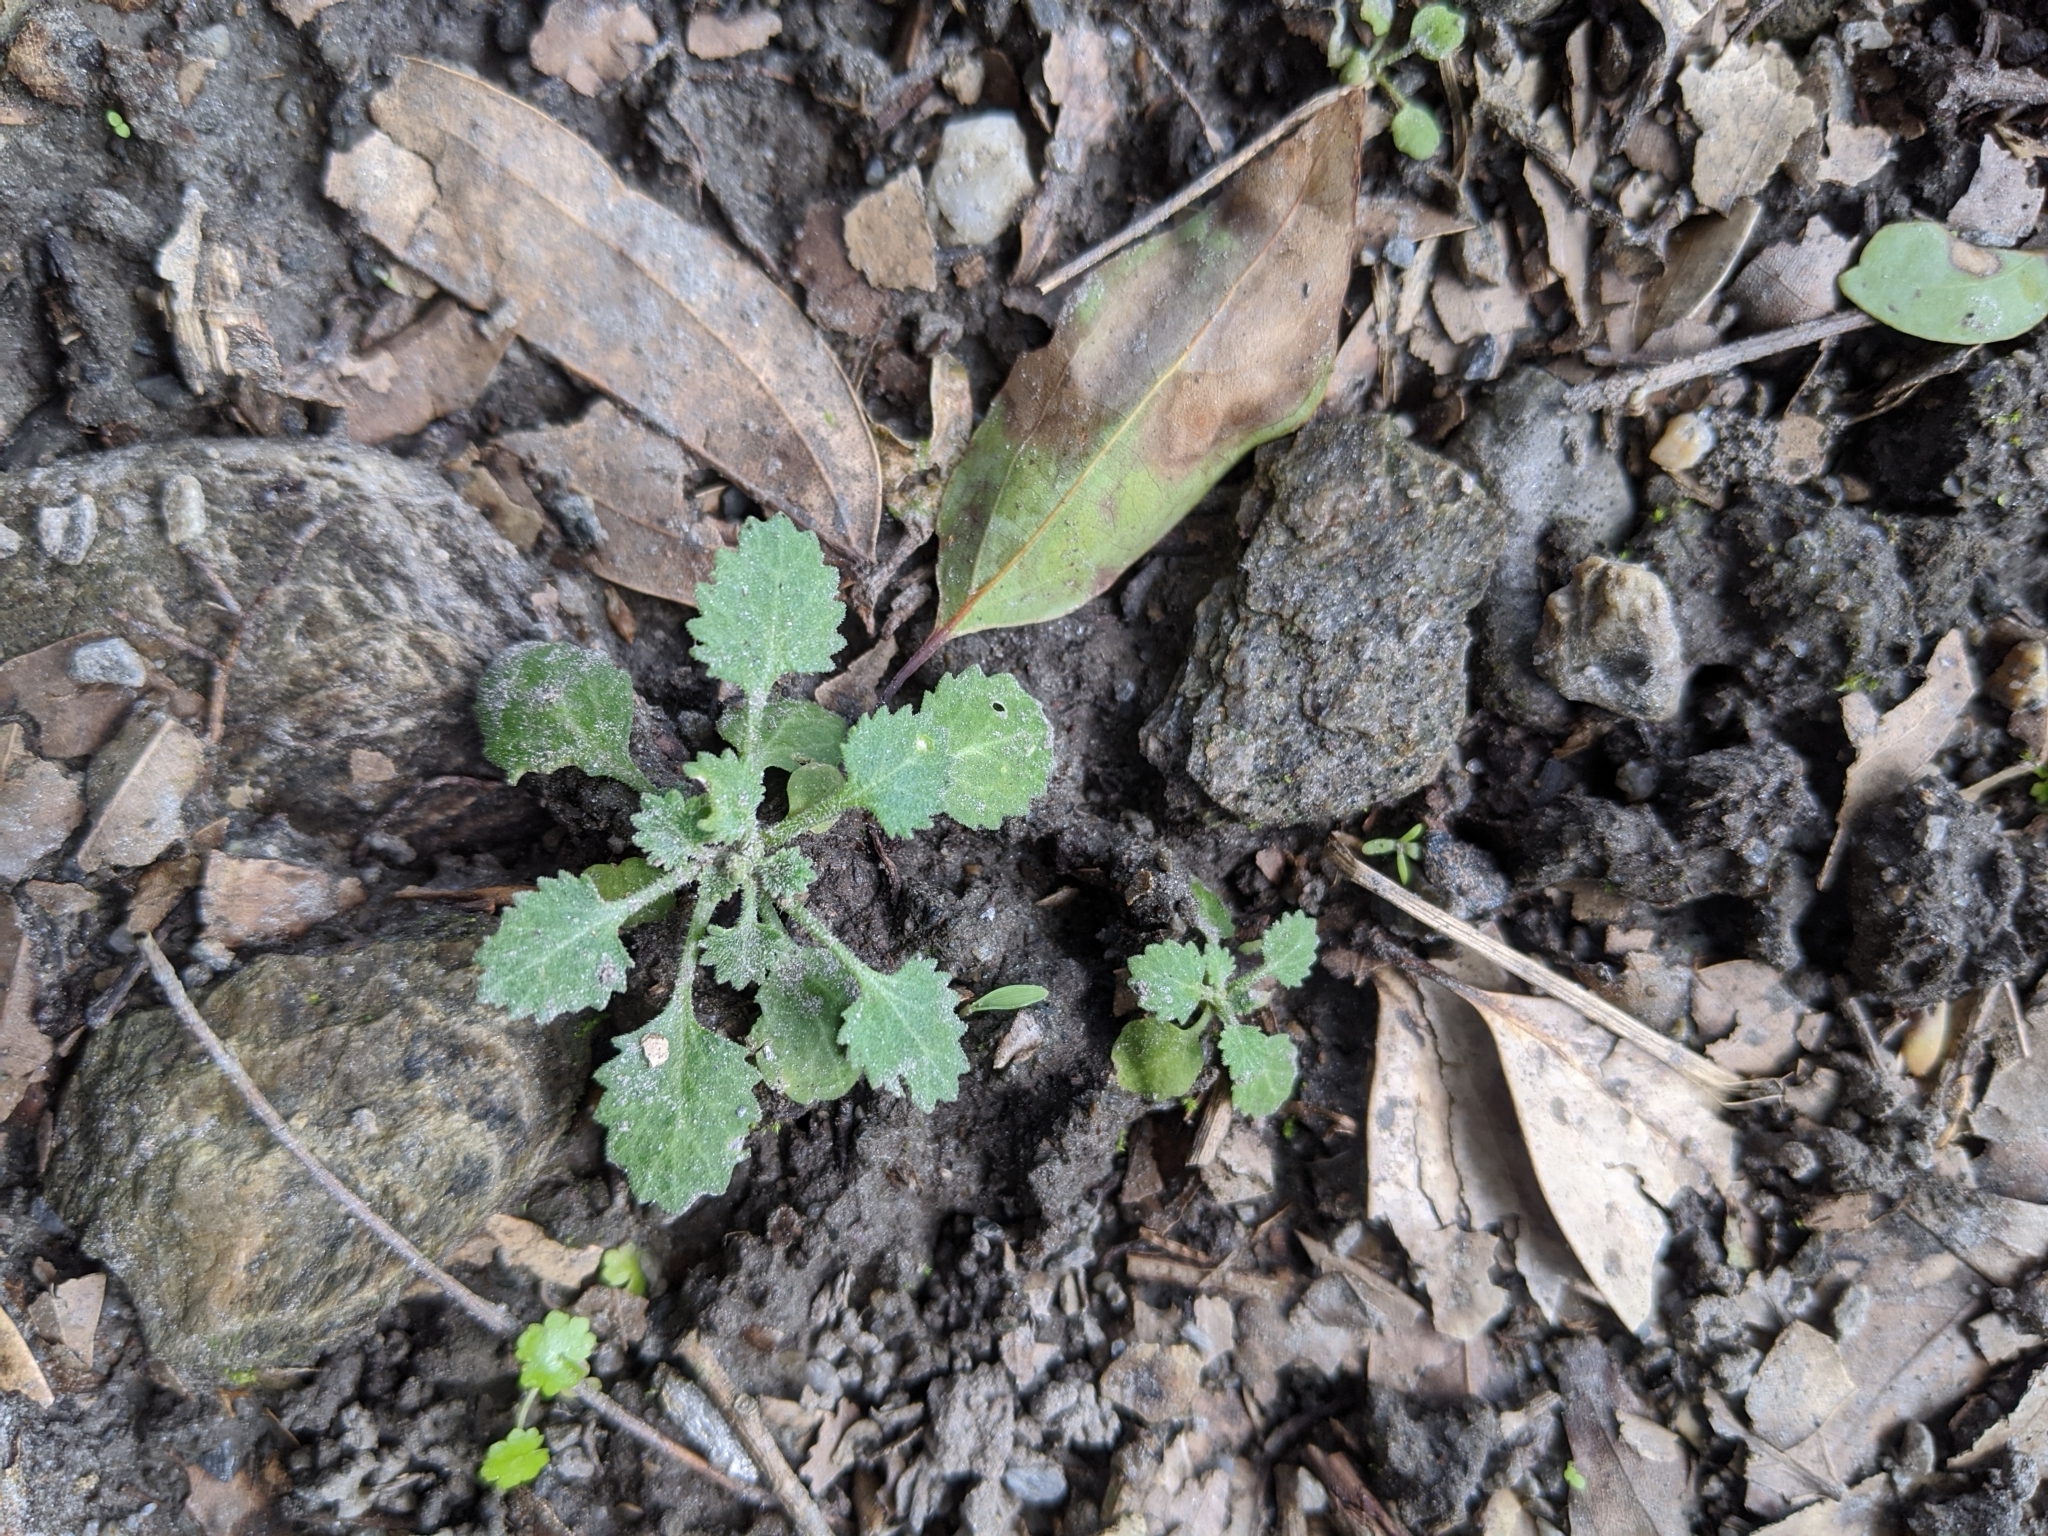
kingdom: Plantae
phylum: Tracheophyta
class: Magnoliopsida
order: Ericales
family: Primulaceae
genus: Androsace
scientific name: Androsace umbellata
